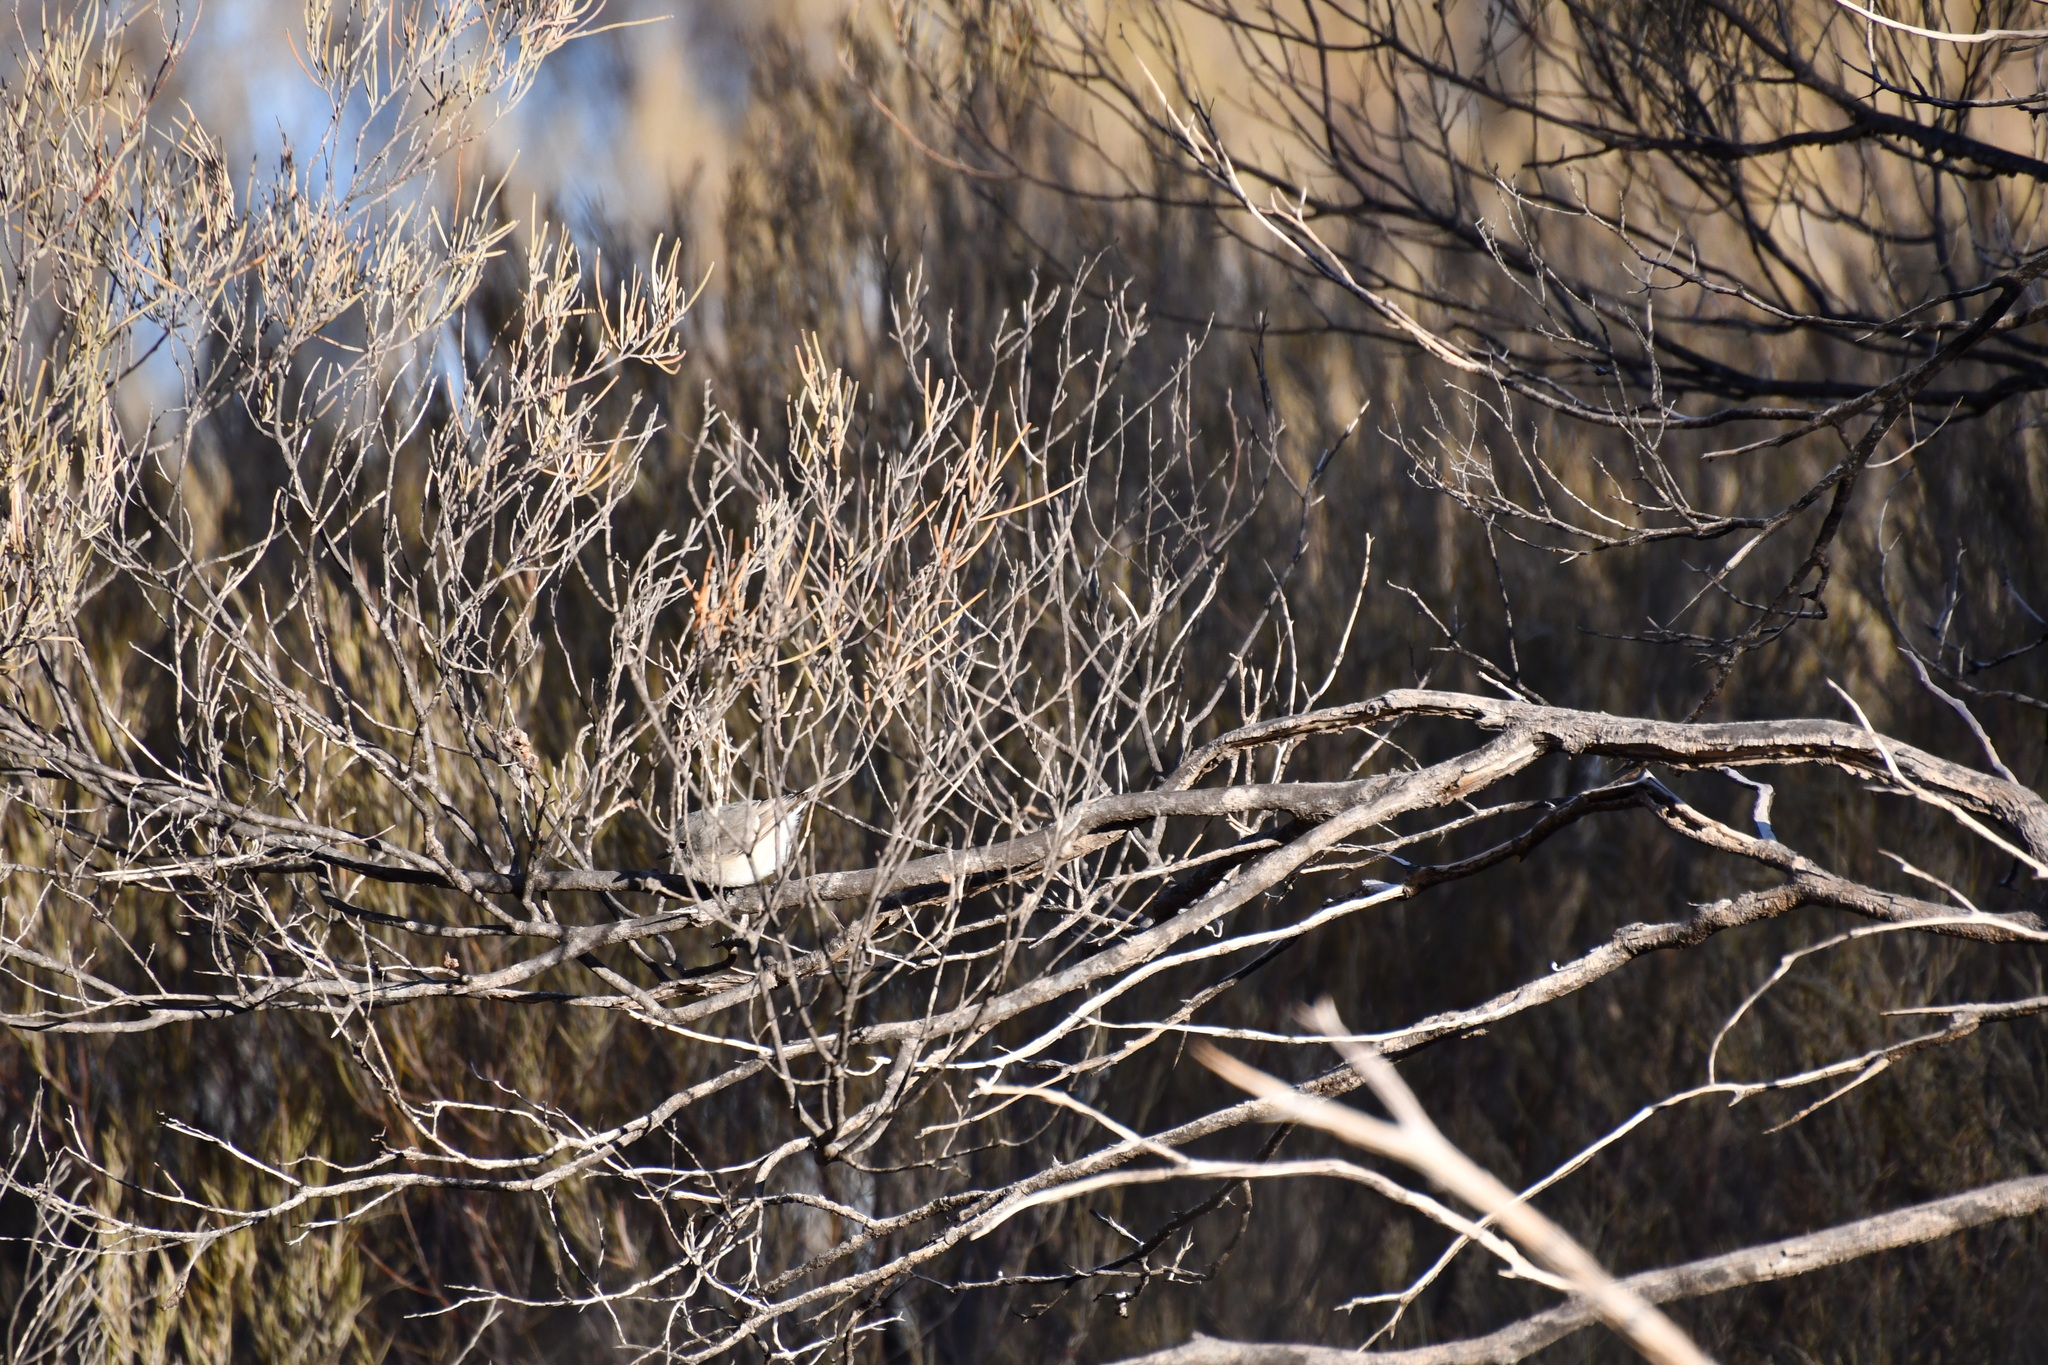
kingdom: Animalia
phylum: Chordata
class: Aves
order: Passeriformes
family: Acanthizidae
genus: Acanthiza
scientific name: Acanthiza robustirostris
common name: Slaty-backed thornbill
